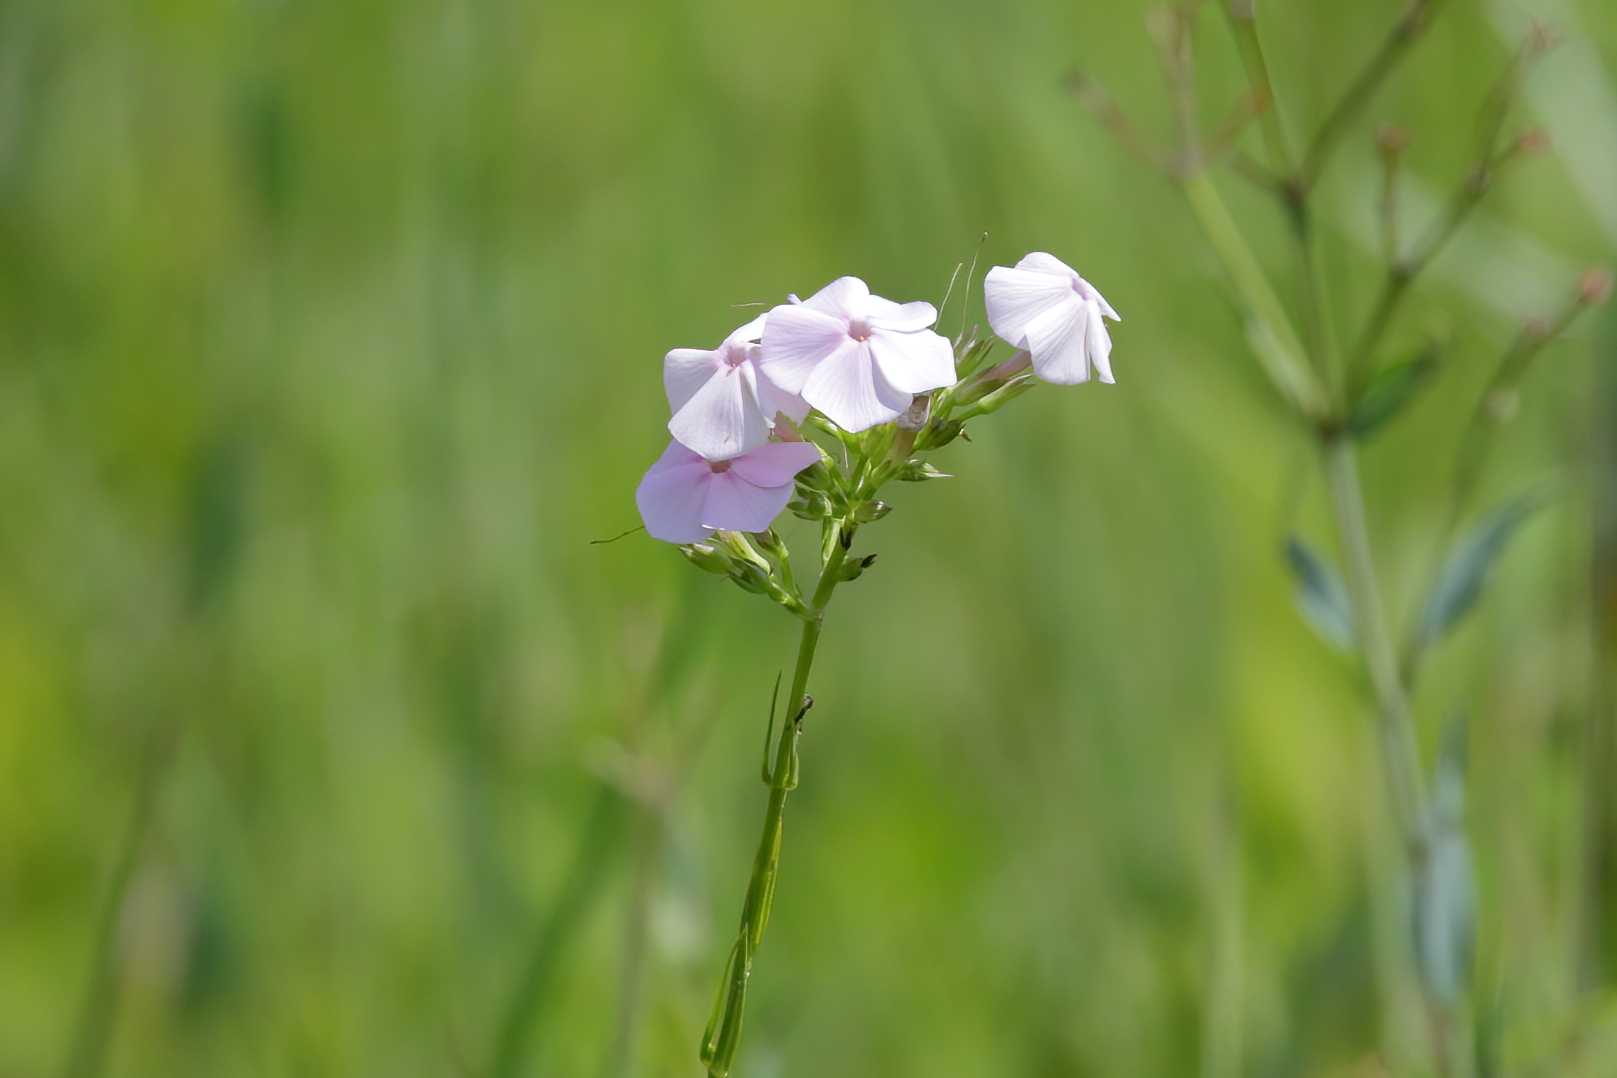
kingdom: Plantae
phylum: Tracheophyta
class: Magnoliopsida
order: Ericales
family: Polemoniaceae
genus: Phlox
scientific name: Phlox carolina
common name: Thick-leaf phlox
